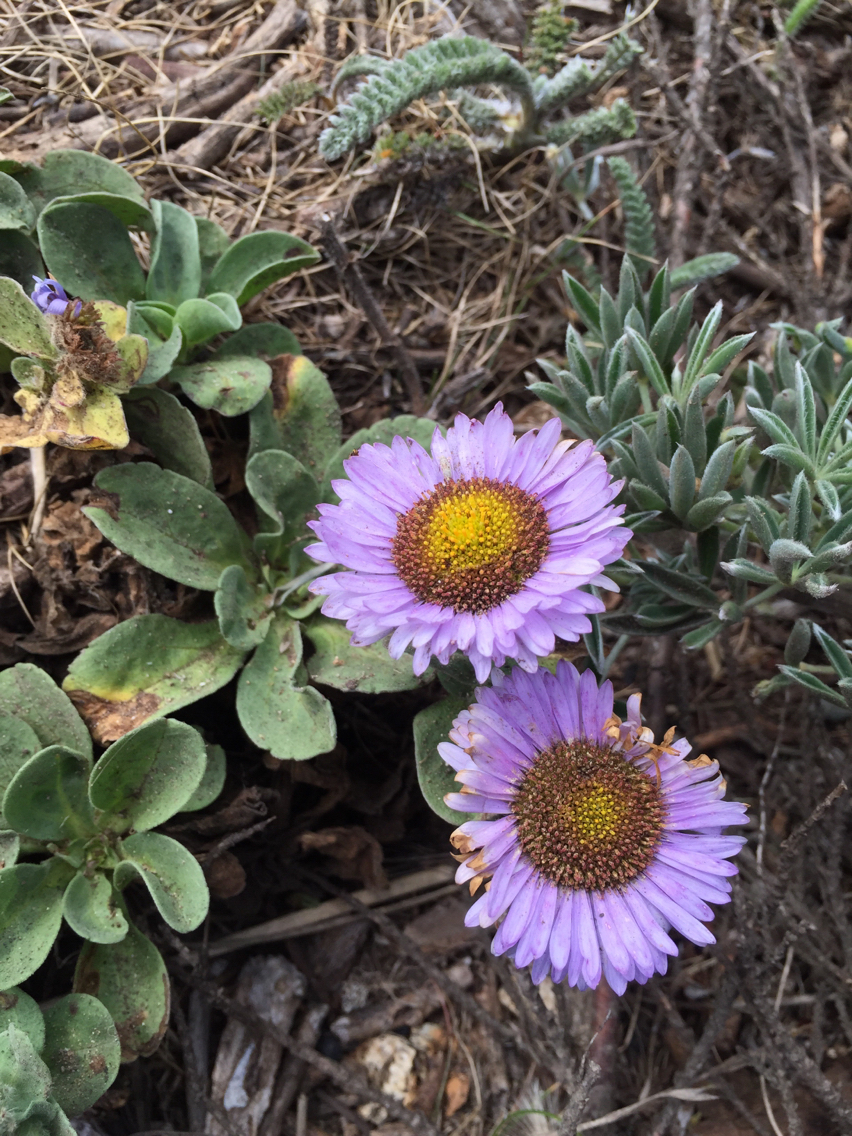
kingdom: Plantae
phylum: Tracheophyta
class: Magnoliopsida
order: Asterales
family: Asteraceae
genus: Erigeron
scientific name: Erigeron glaucus
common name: Seaside daisy
